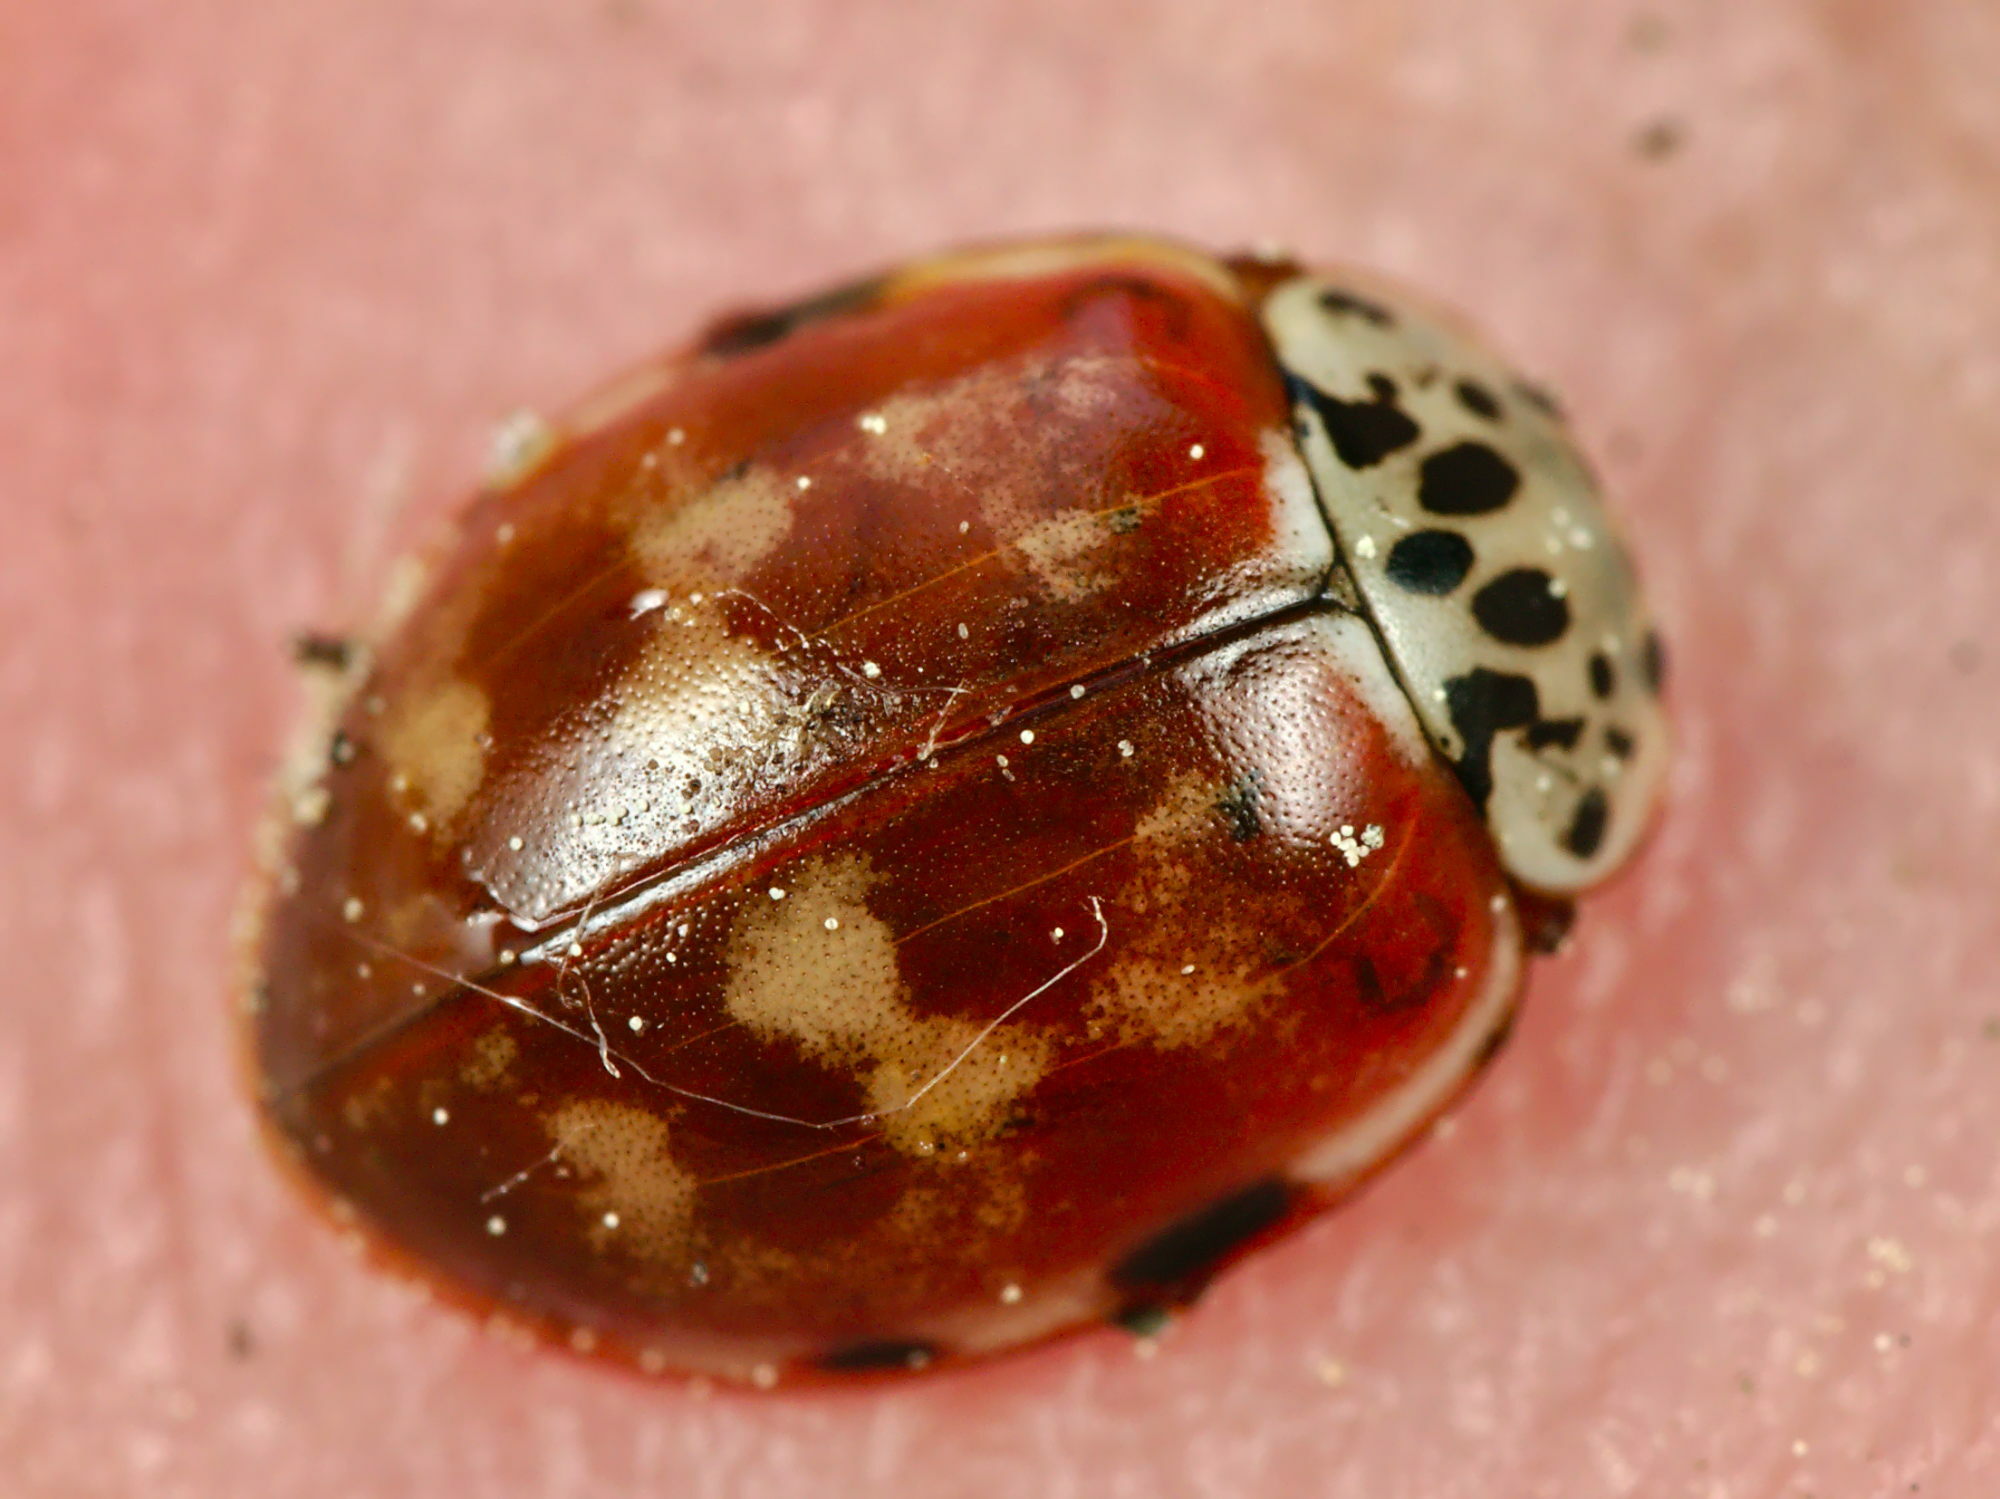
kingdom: Animalia
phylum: Arthropoda
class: Insecta
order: Coleoptera
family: Coccinellidae
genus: Harmonia
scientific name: Harmonia quadripunctata
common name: Cream-streaked ladybird
